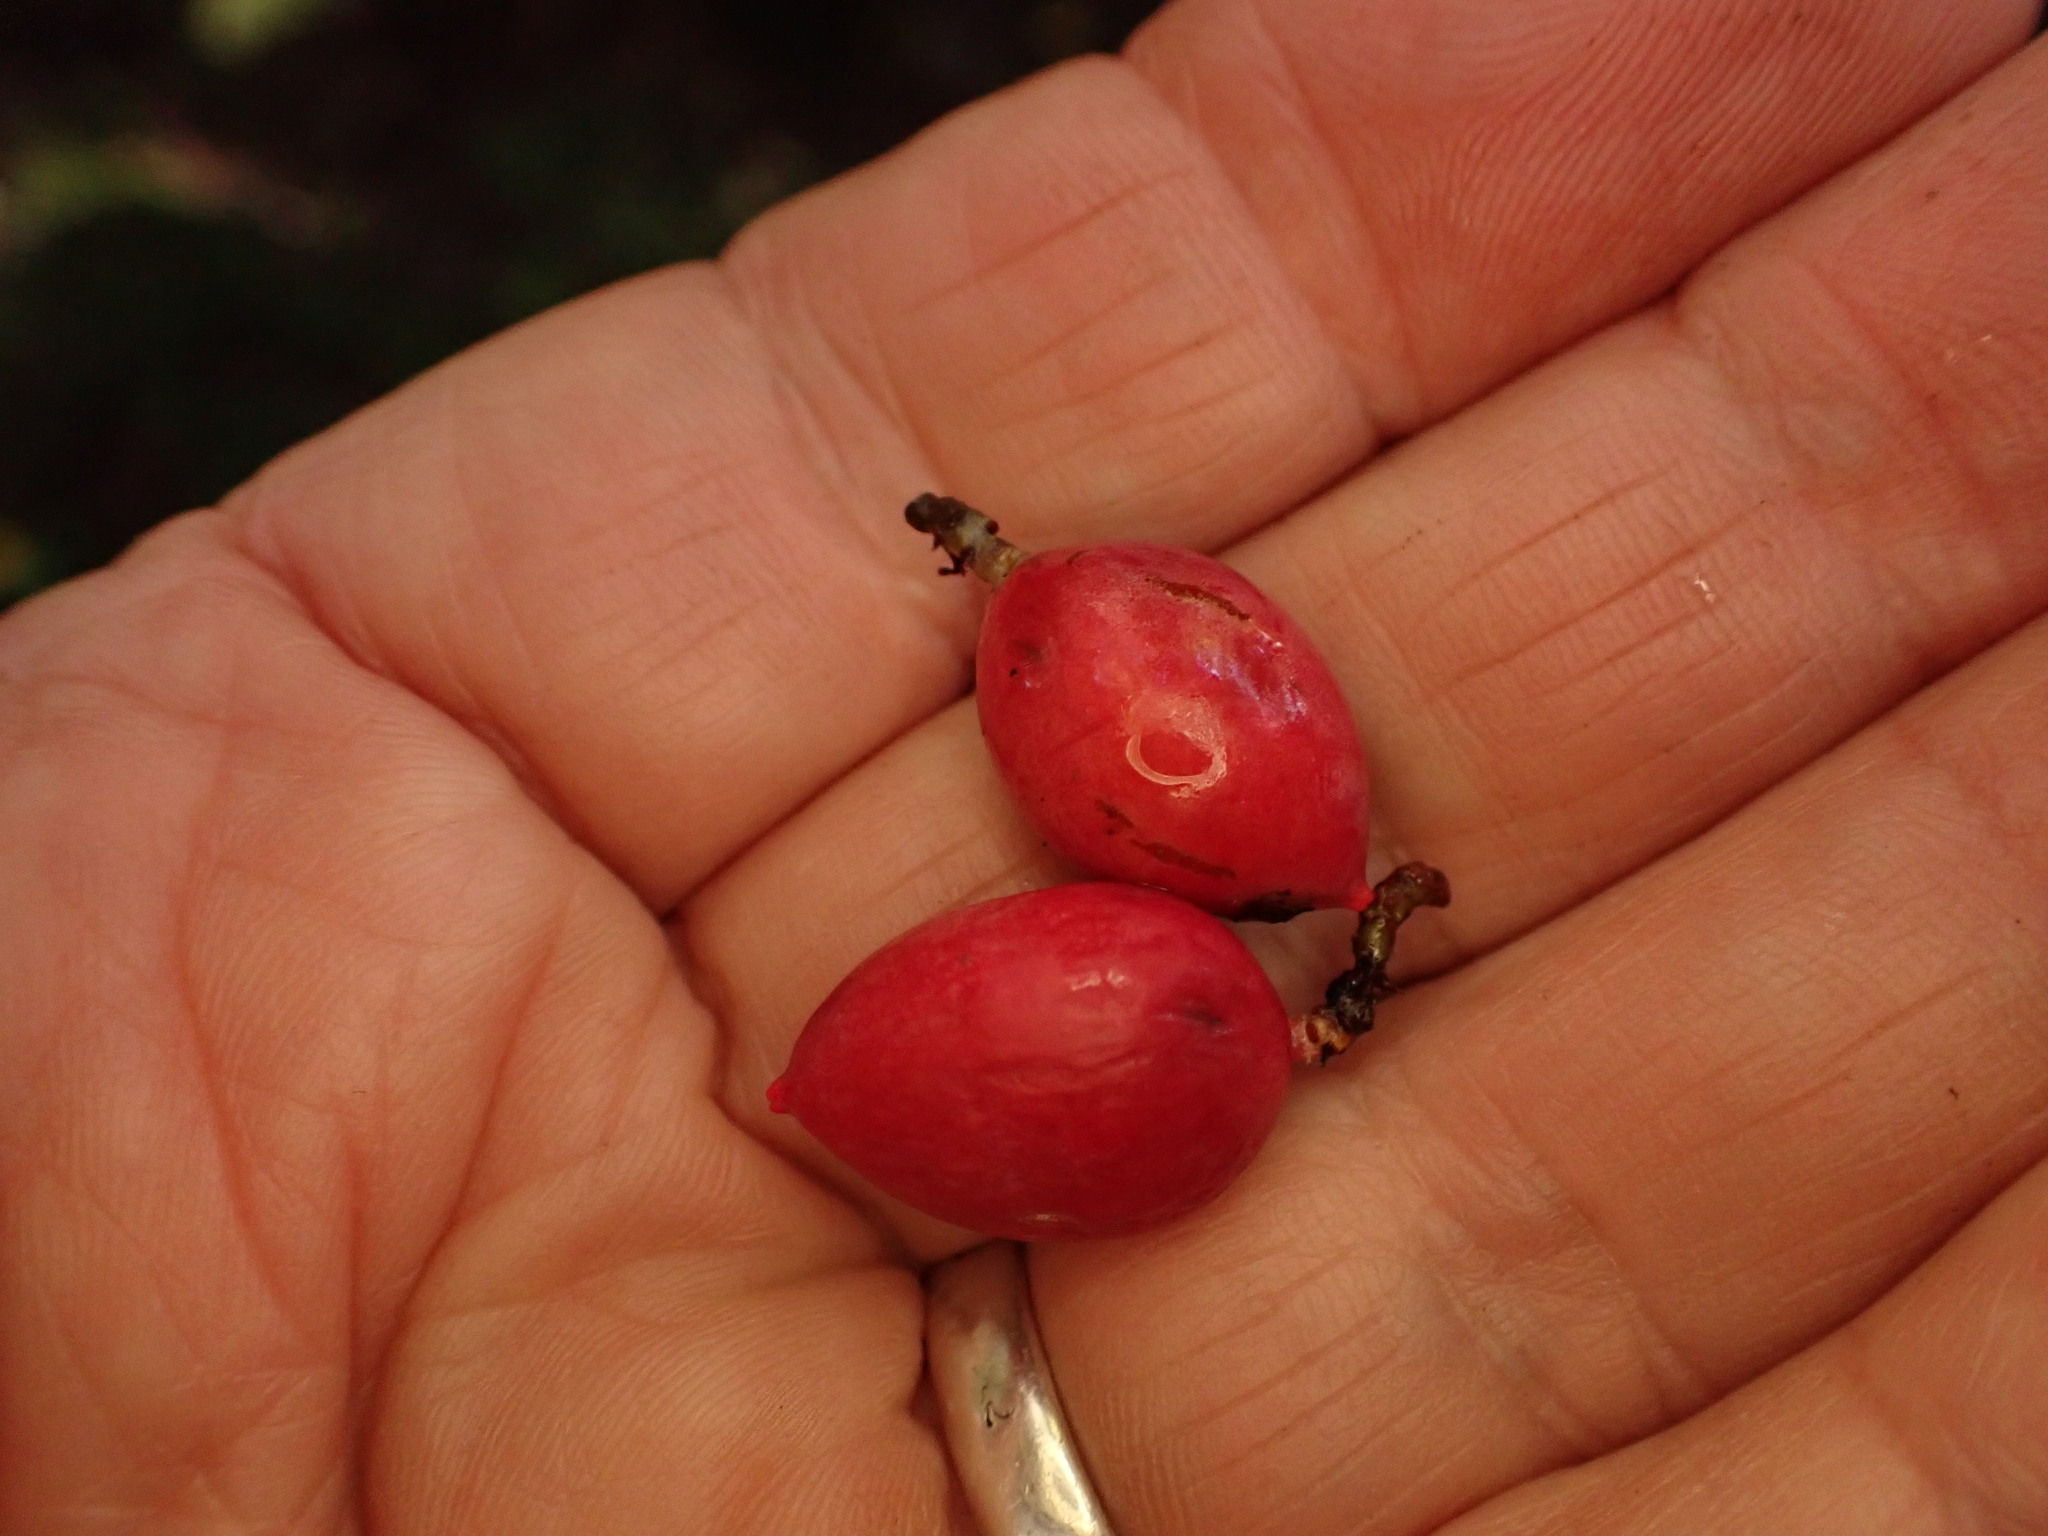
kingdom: Plantae
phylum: Tracheophyta
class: Pinopsida
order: Pinales
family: Podocarpaceae
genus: Prumnopitys
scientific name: Prumnopitys ferruginea
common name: Brown pine
